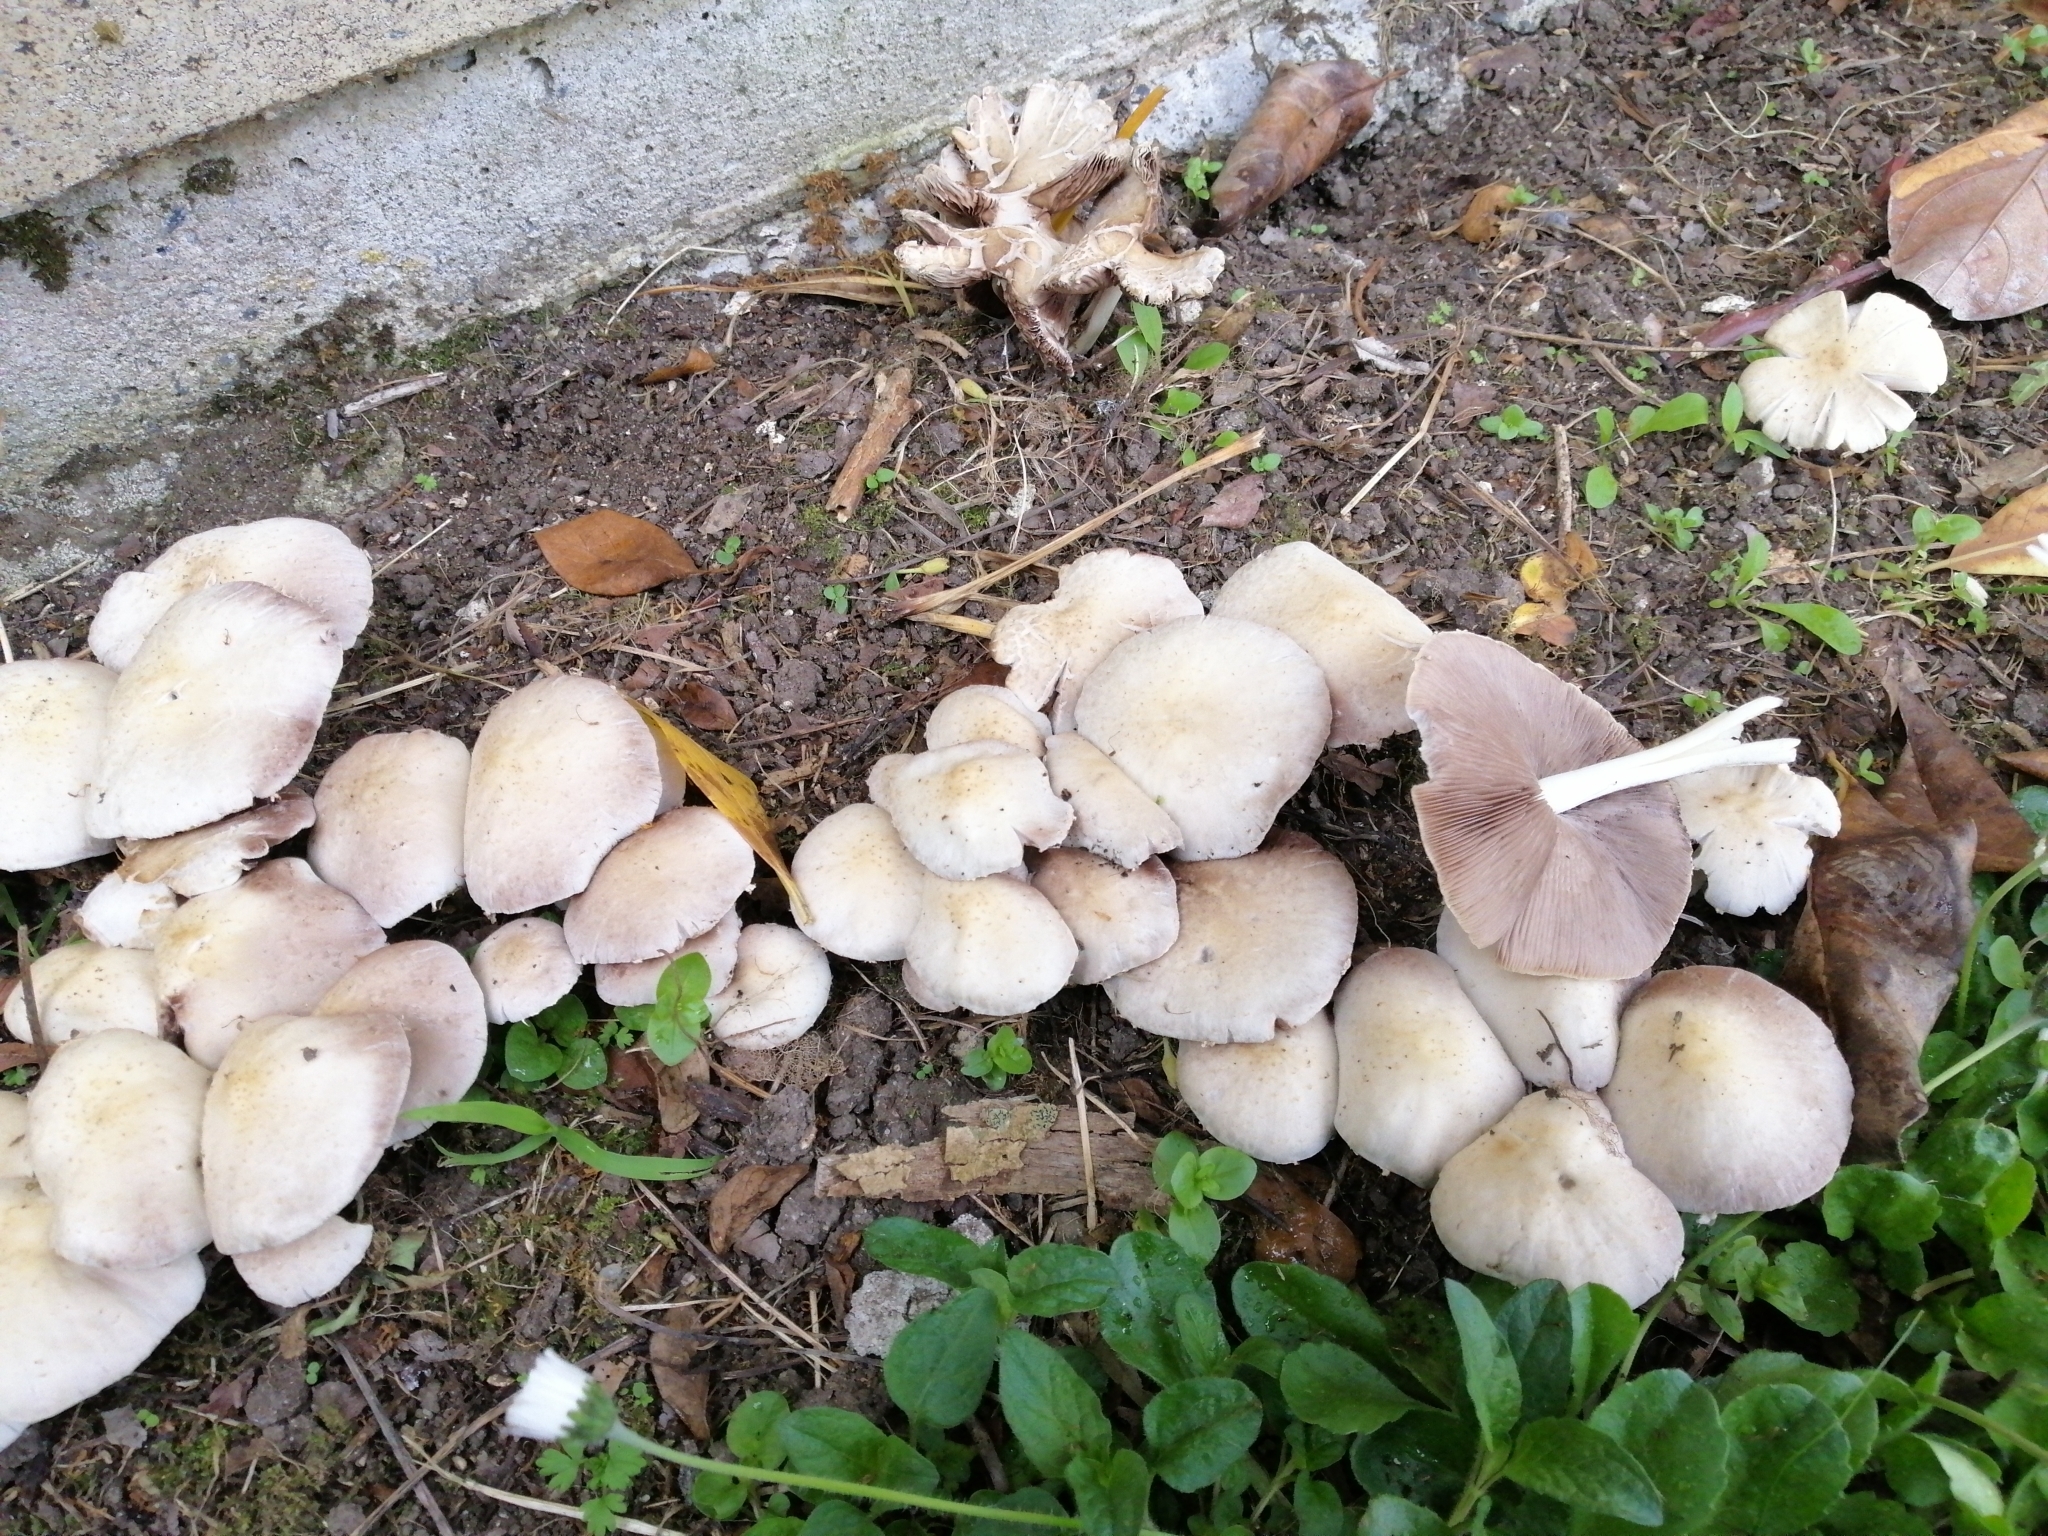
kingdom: Fungi
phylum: Basidiomycota
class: Agaricomycetes
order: Agaricales
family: Psathyrellaceae
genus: Candolleomyces
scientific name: Candolleomyces candolleanus
